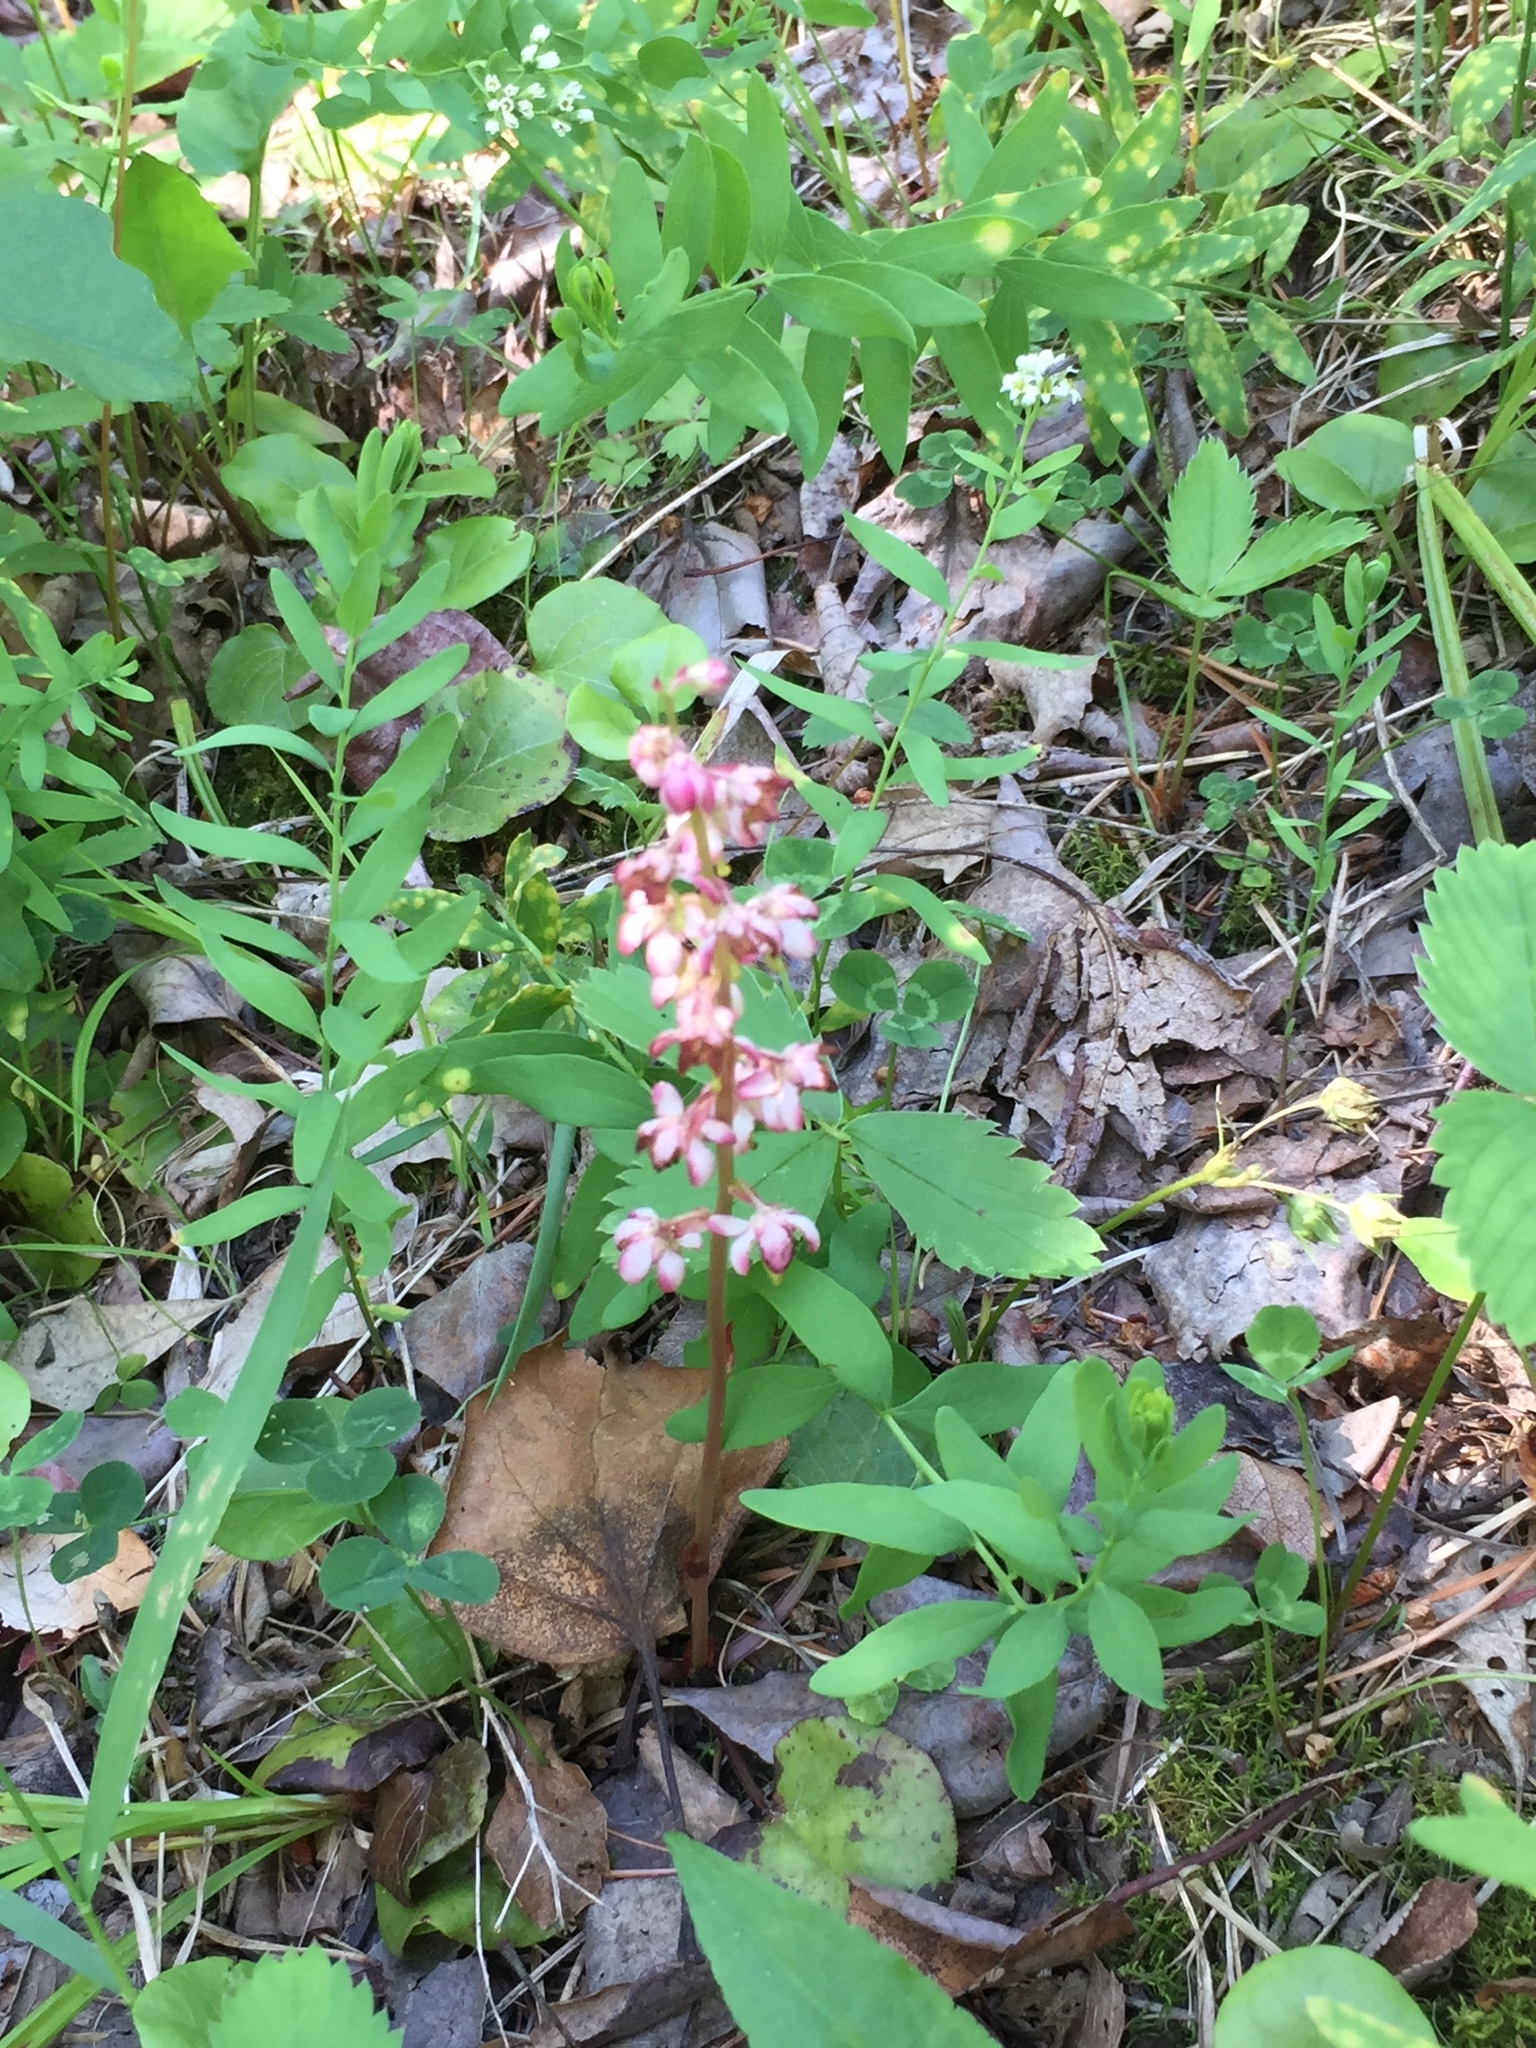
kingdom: Plantae
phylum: Tracheophyta
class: Magnoliopsida
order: Ericales
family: Ericaceae
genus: Pyrola
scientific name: Pyrola asarifolia
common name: Bog wintergreen
